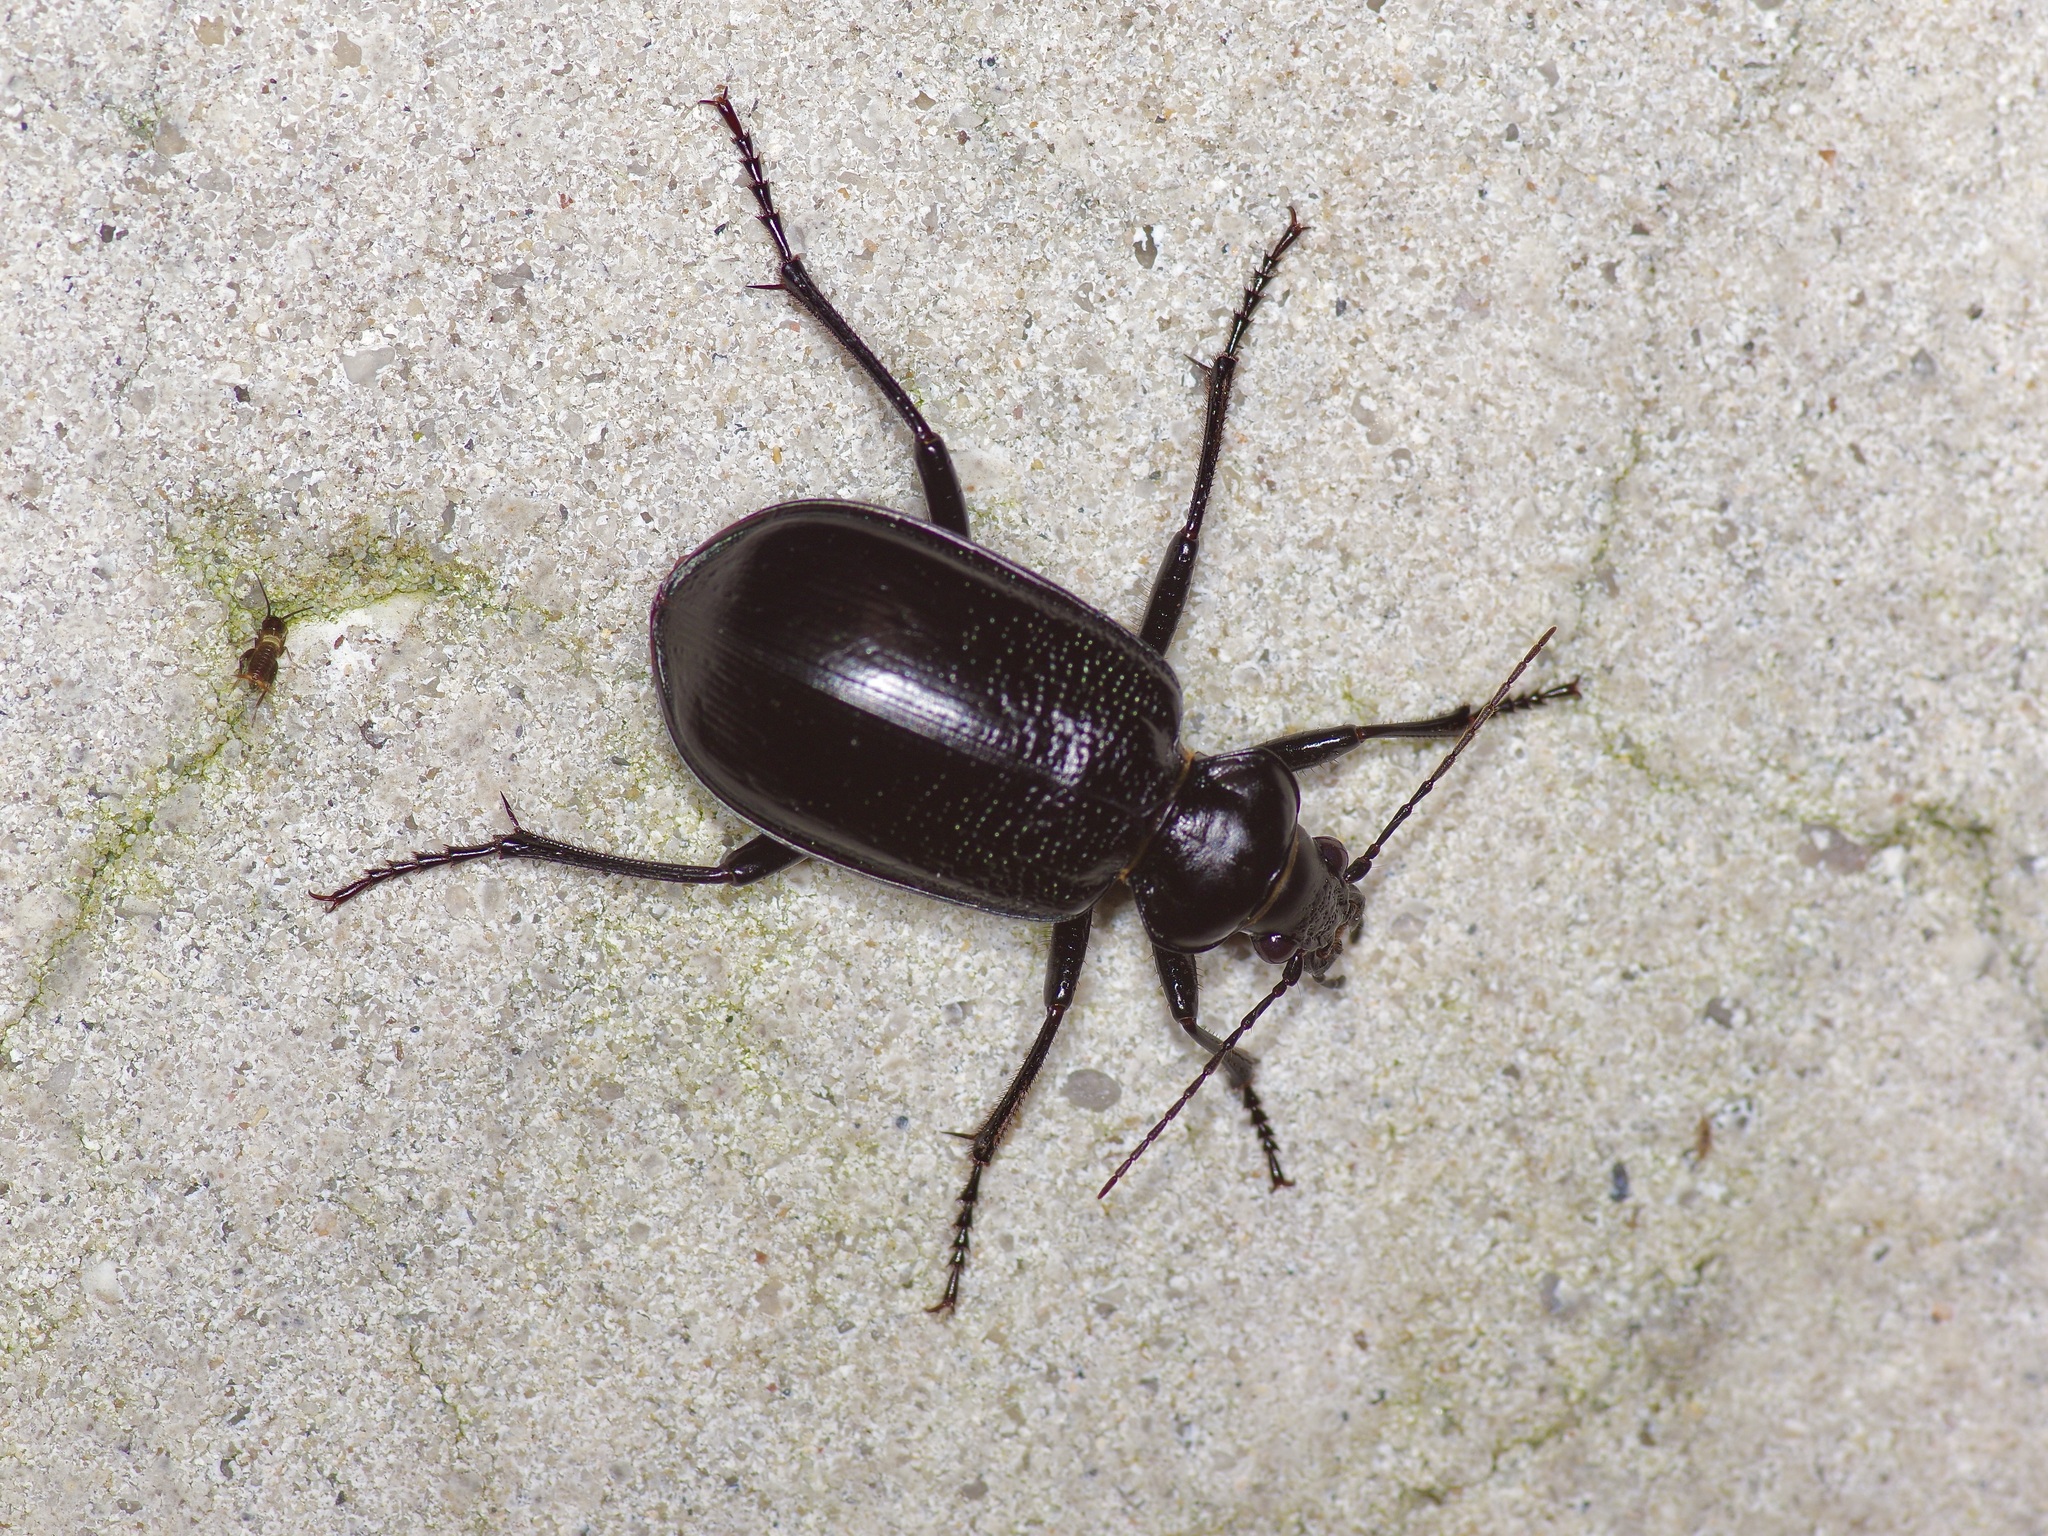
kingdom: Animalia
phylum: Arthropoda
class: Insecta
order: Coleoptera
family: Carabidae
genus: Calosoma
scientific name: Calosoma marginale
